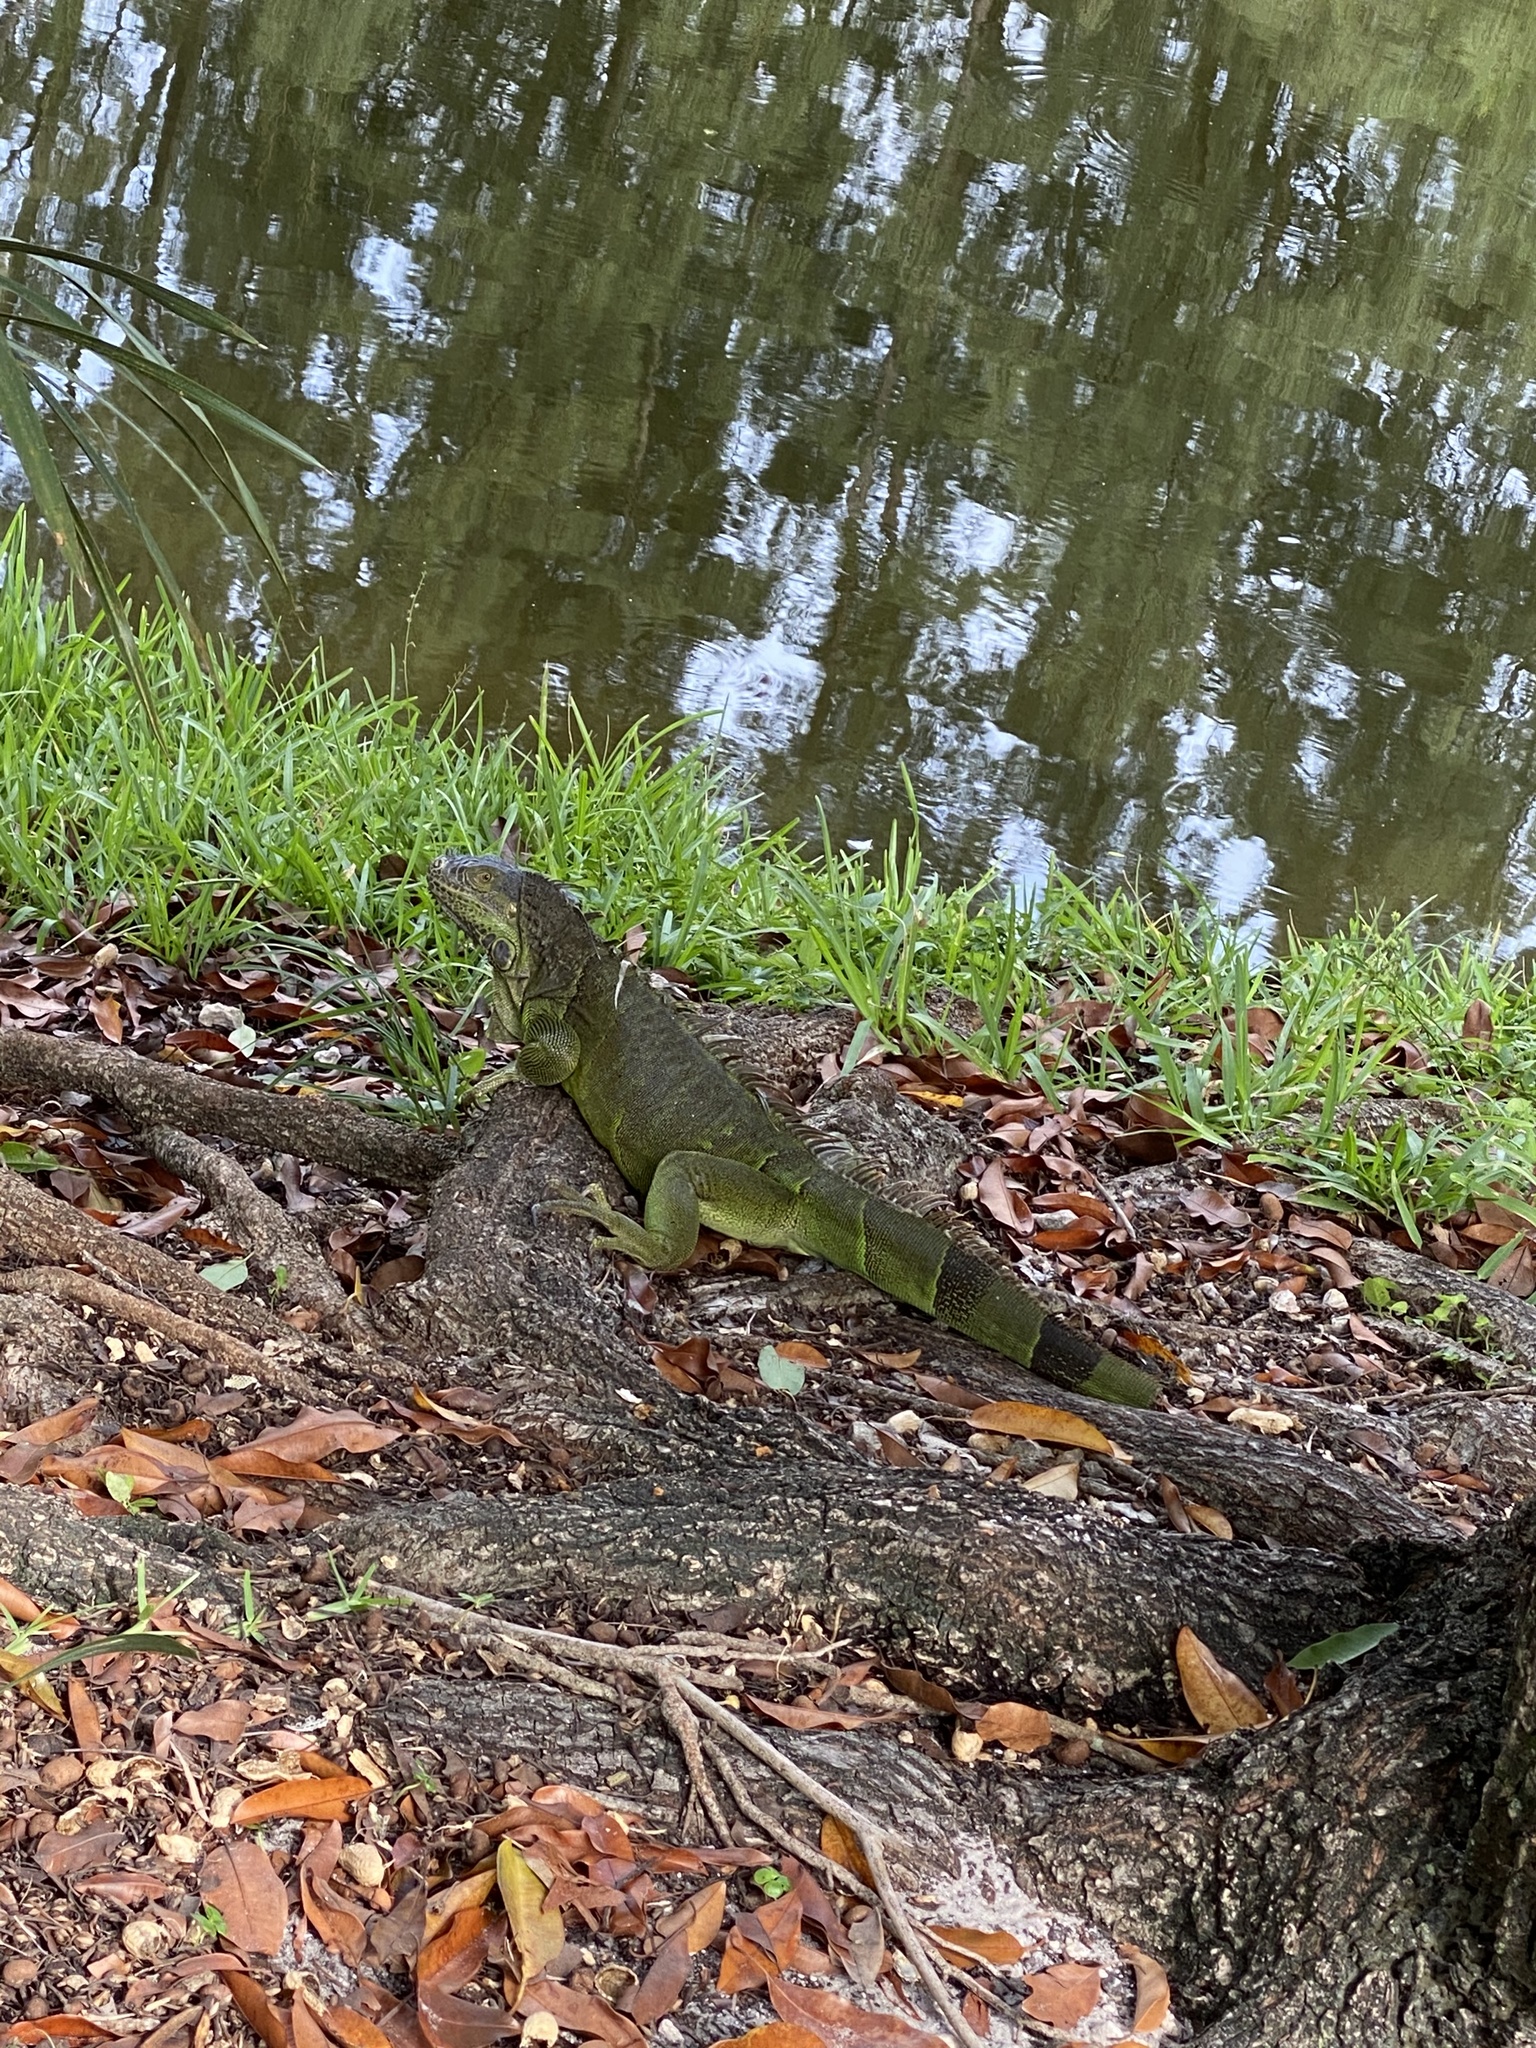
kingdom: Animalia
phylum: Chordata
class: Squamata
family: Iguanidae
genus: Iguana
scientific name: Iguana iguana
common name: Green iguana
